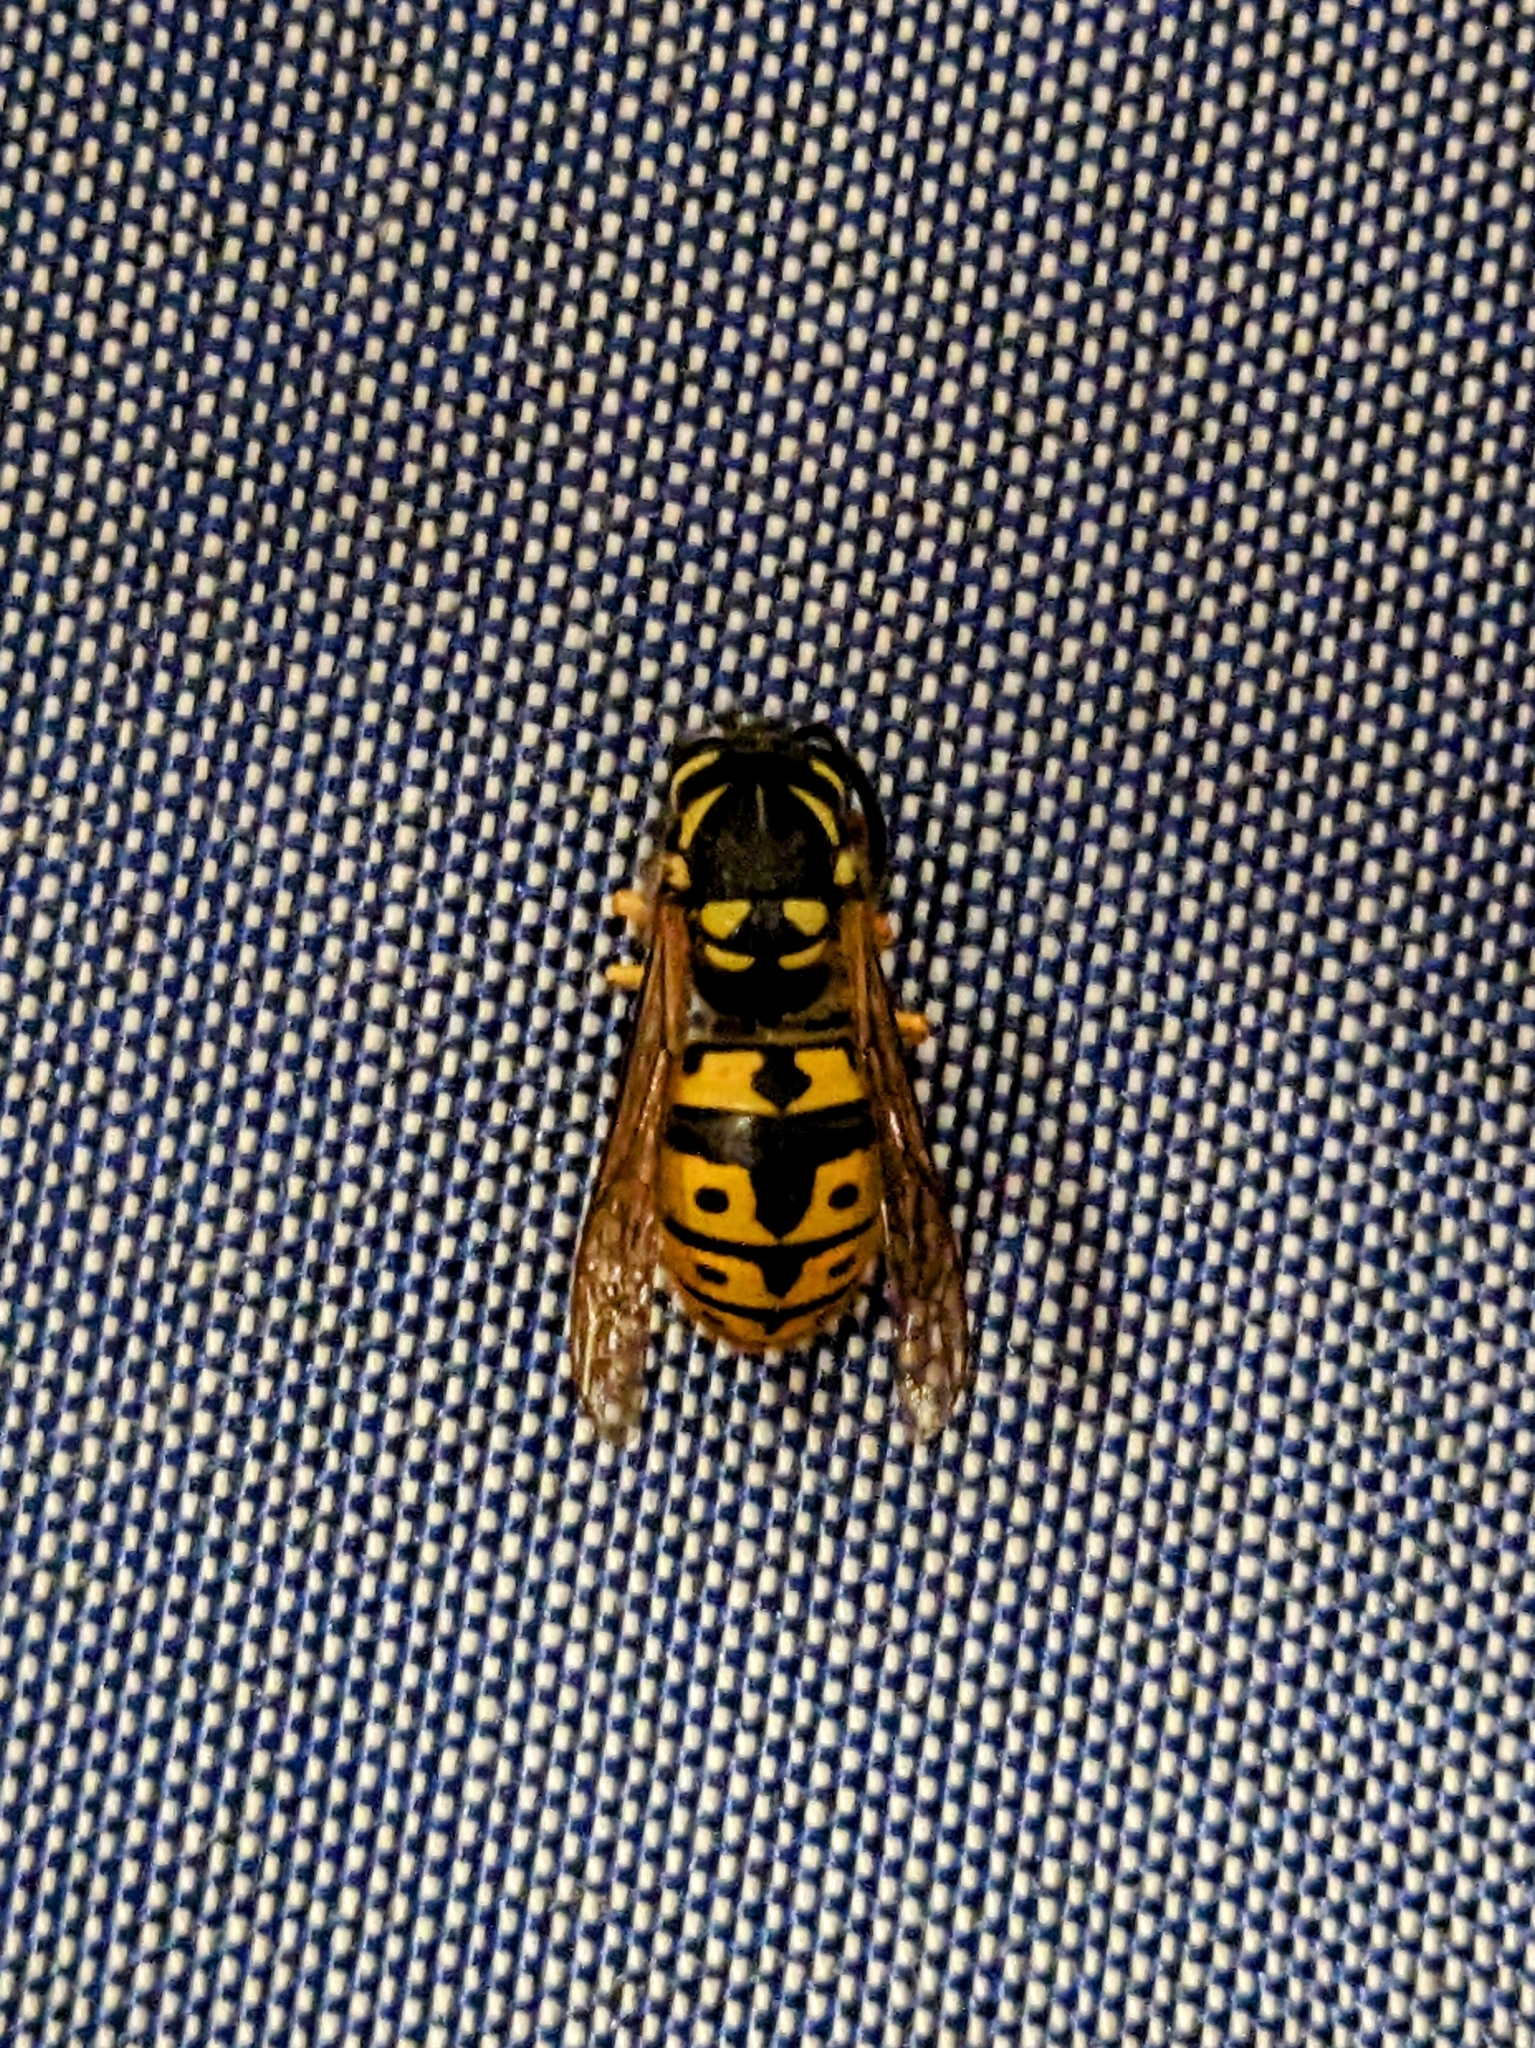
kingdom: Animalia
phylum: Arthropoda
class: Insecta
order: Hymenoptera
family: Vespidae
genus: Vespula
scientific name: Vespula germanica
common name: German wasp
